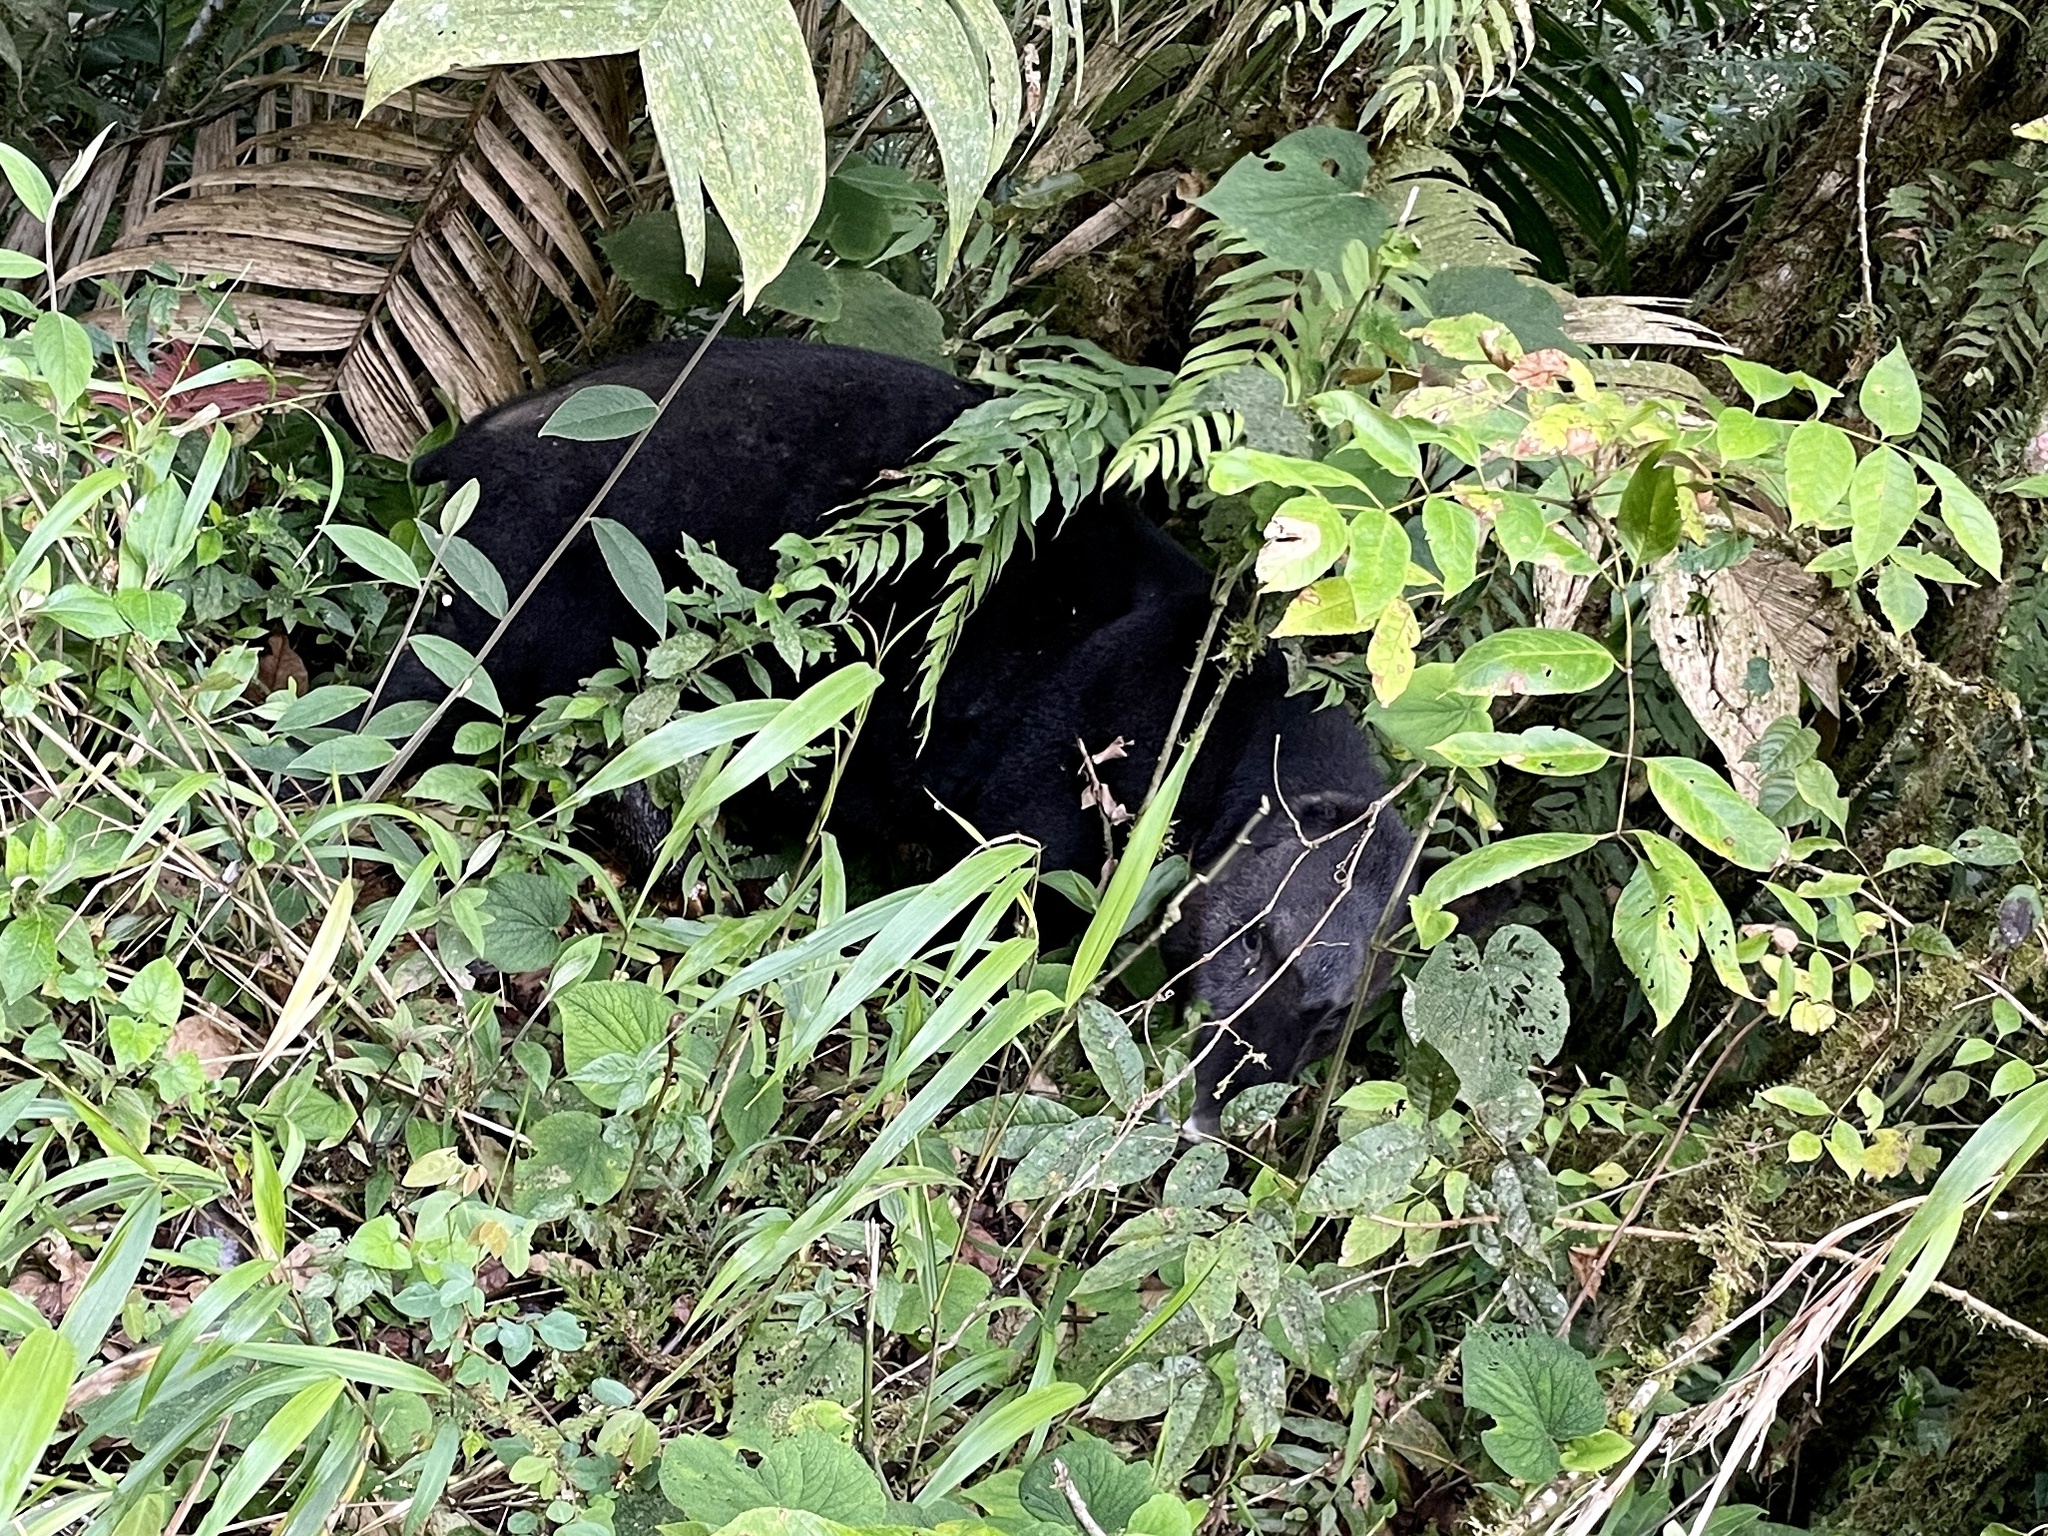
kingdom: Animalia
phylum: Chordata
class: Mammalia
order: Perissodactyla
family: Tapiridae
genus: Tapirus
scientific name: Tapirus pinchaque
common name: Mountain tapir
